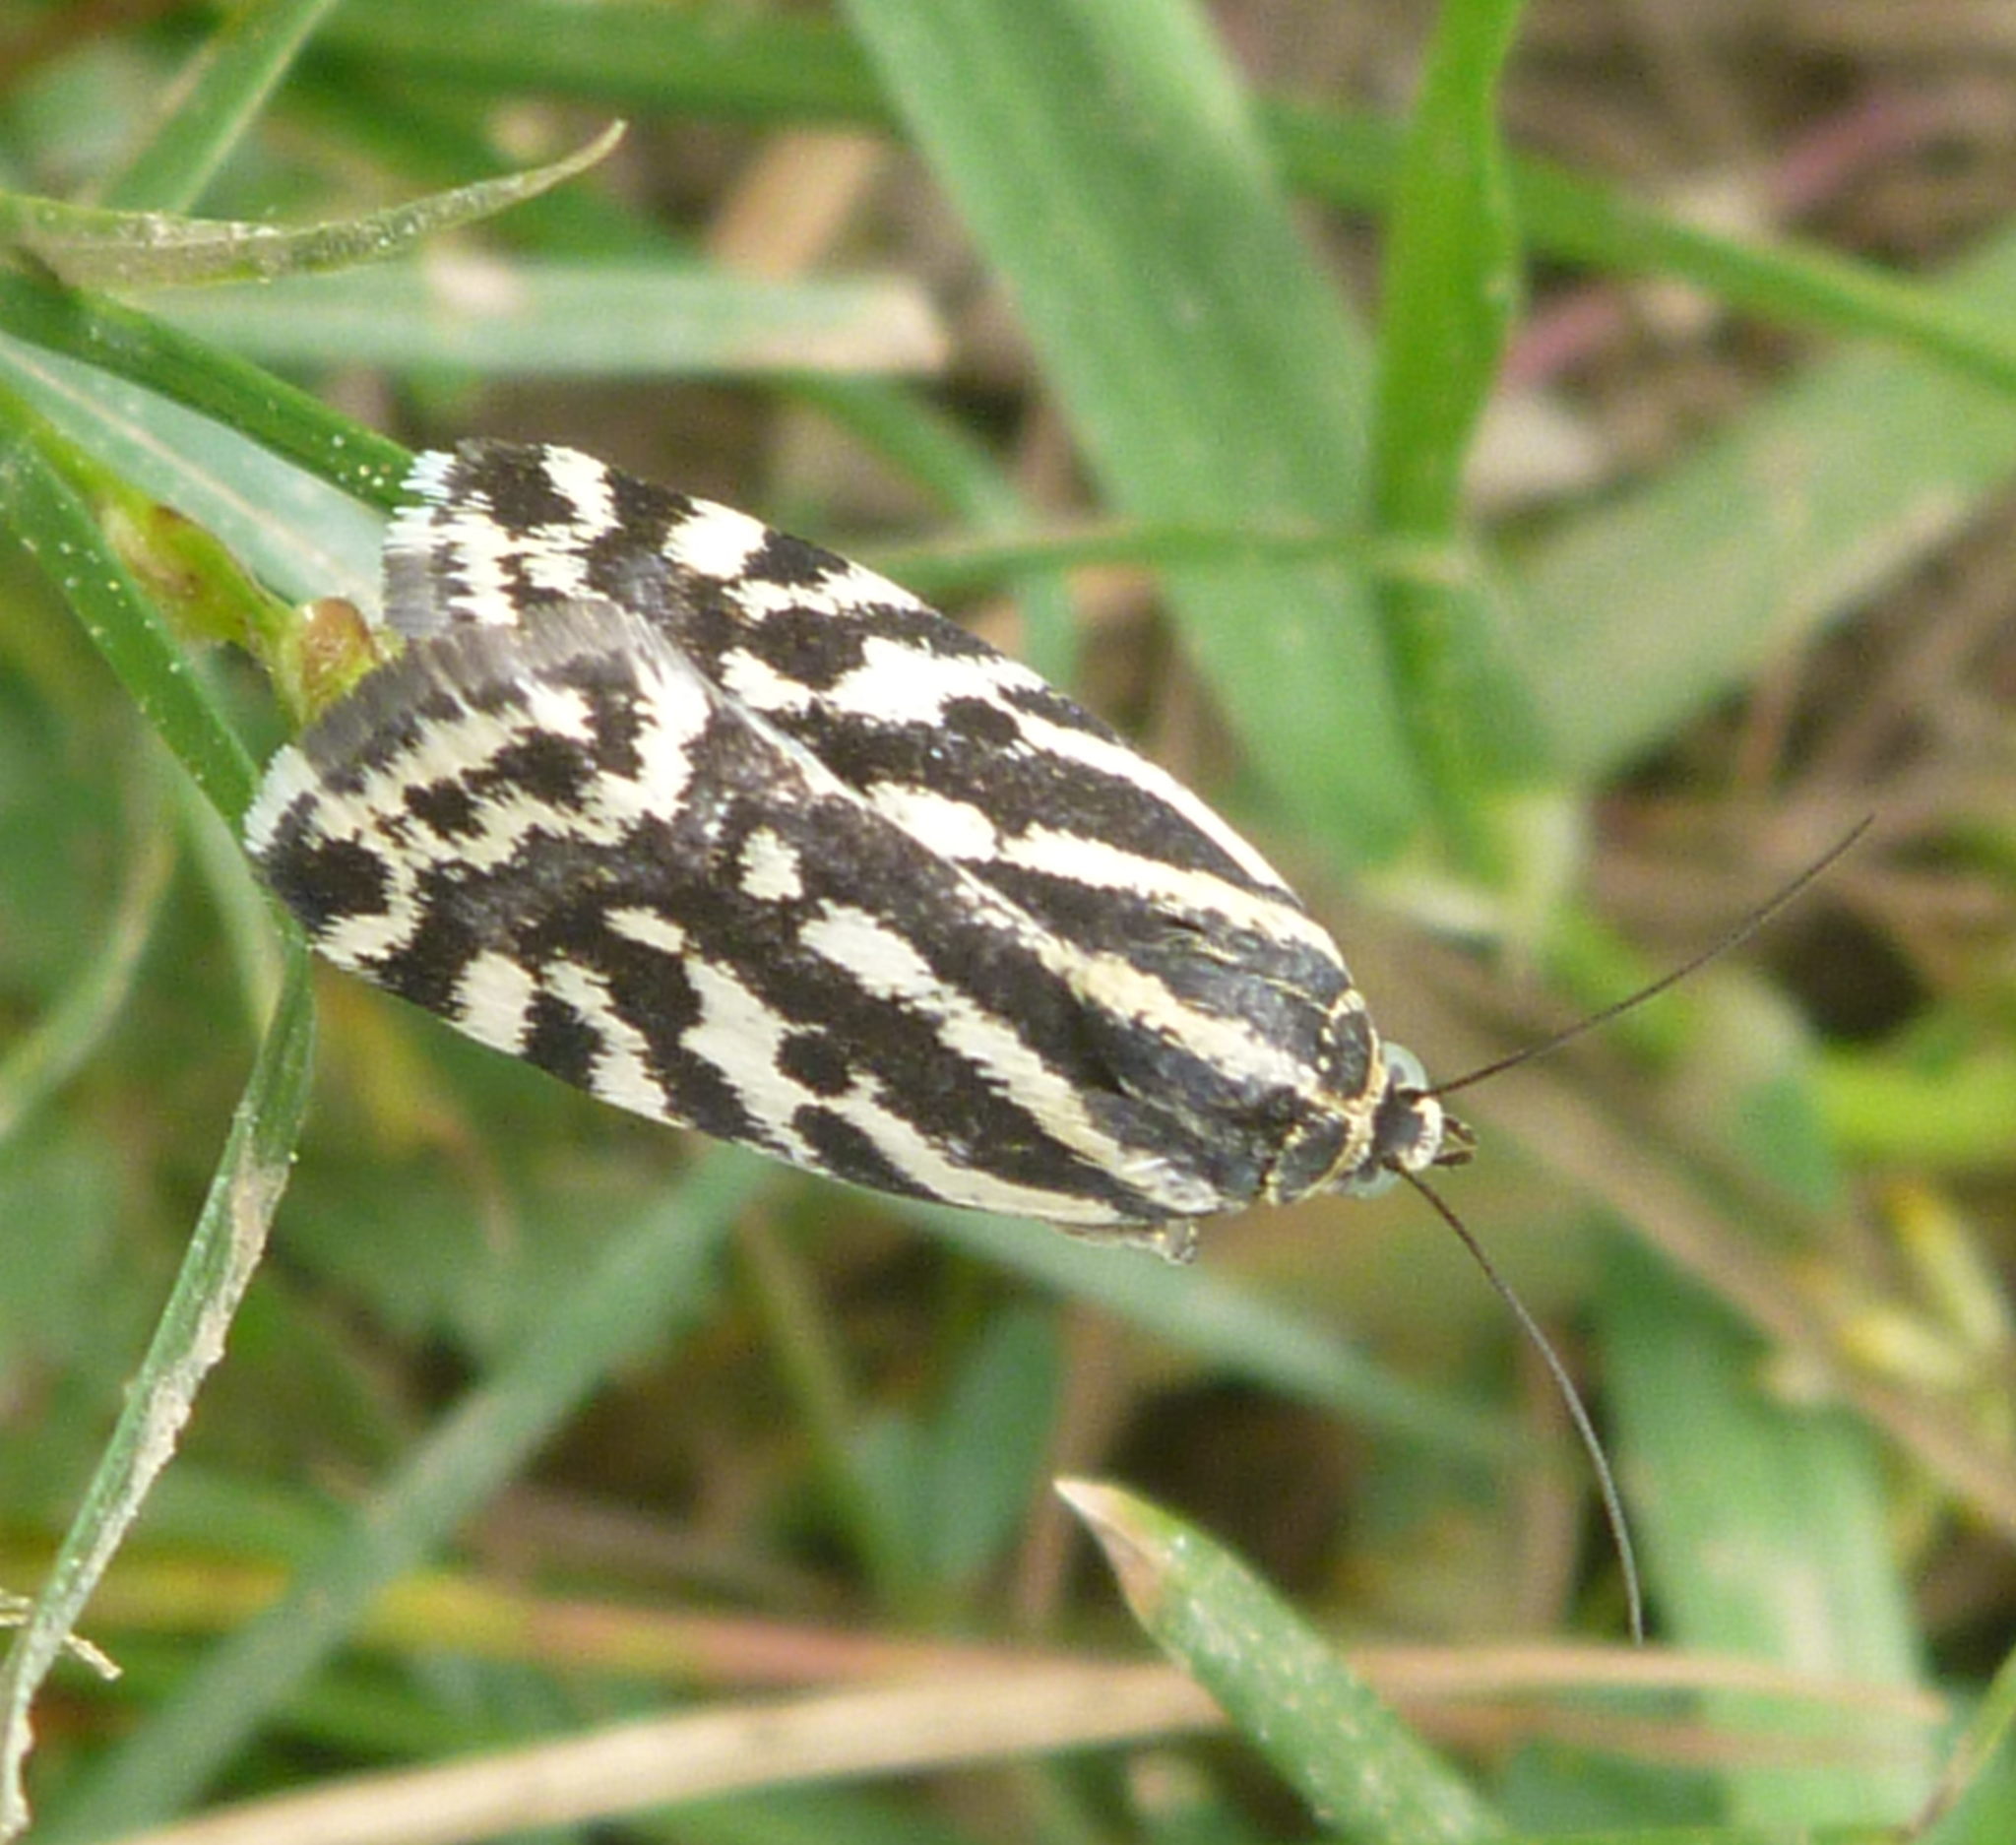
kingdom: Animalia
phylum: Arthropoda
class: Insecta
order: Lepidoptera
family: Noctuidae
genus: Acontia
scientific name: Acontia trabealis
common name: Spotted sulphur
